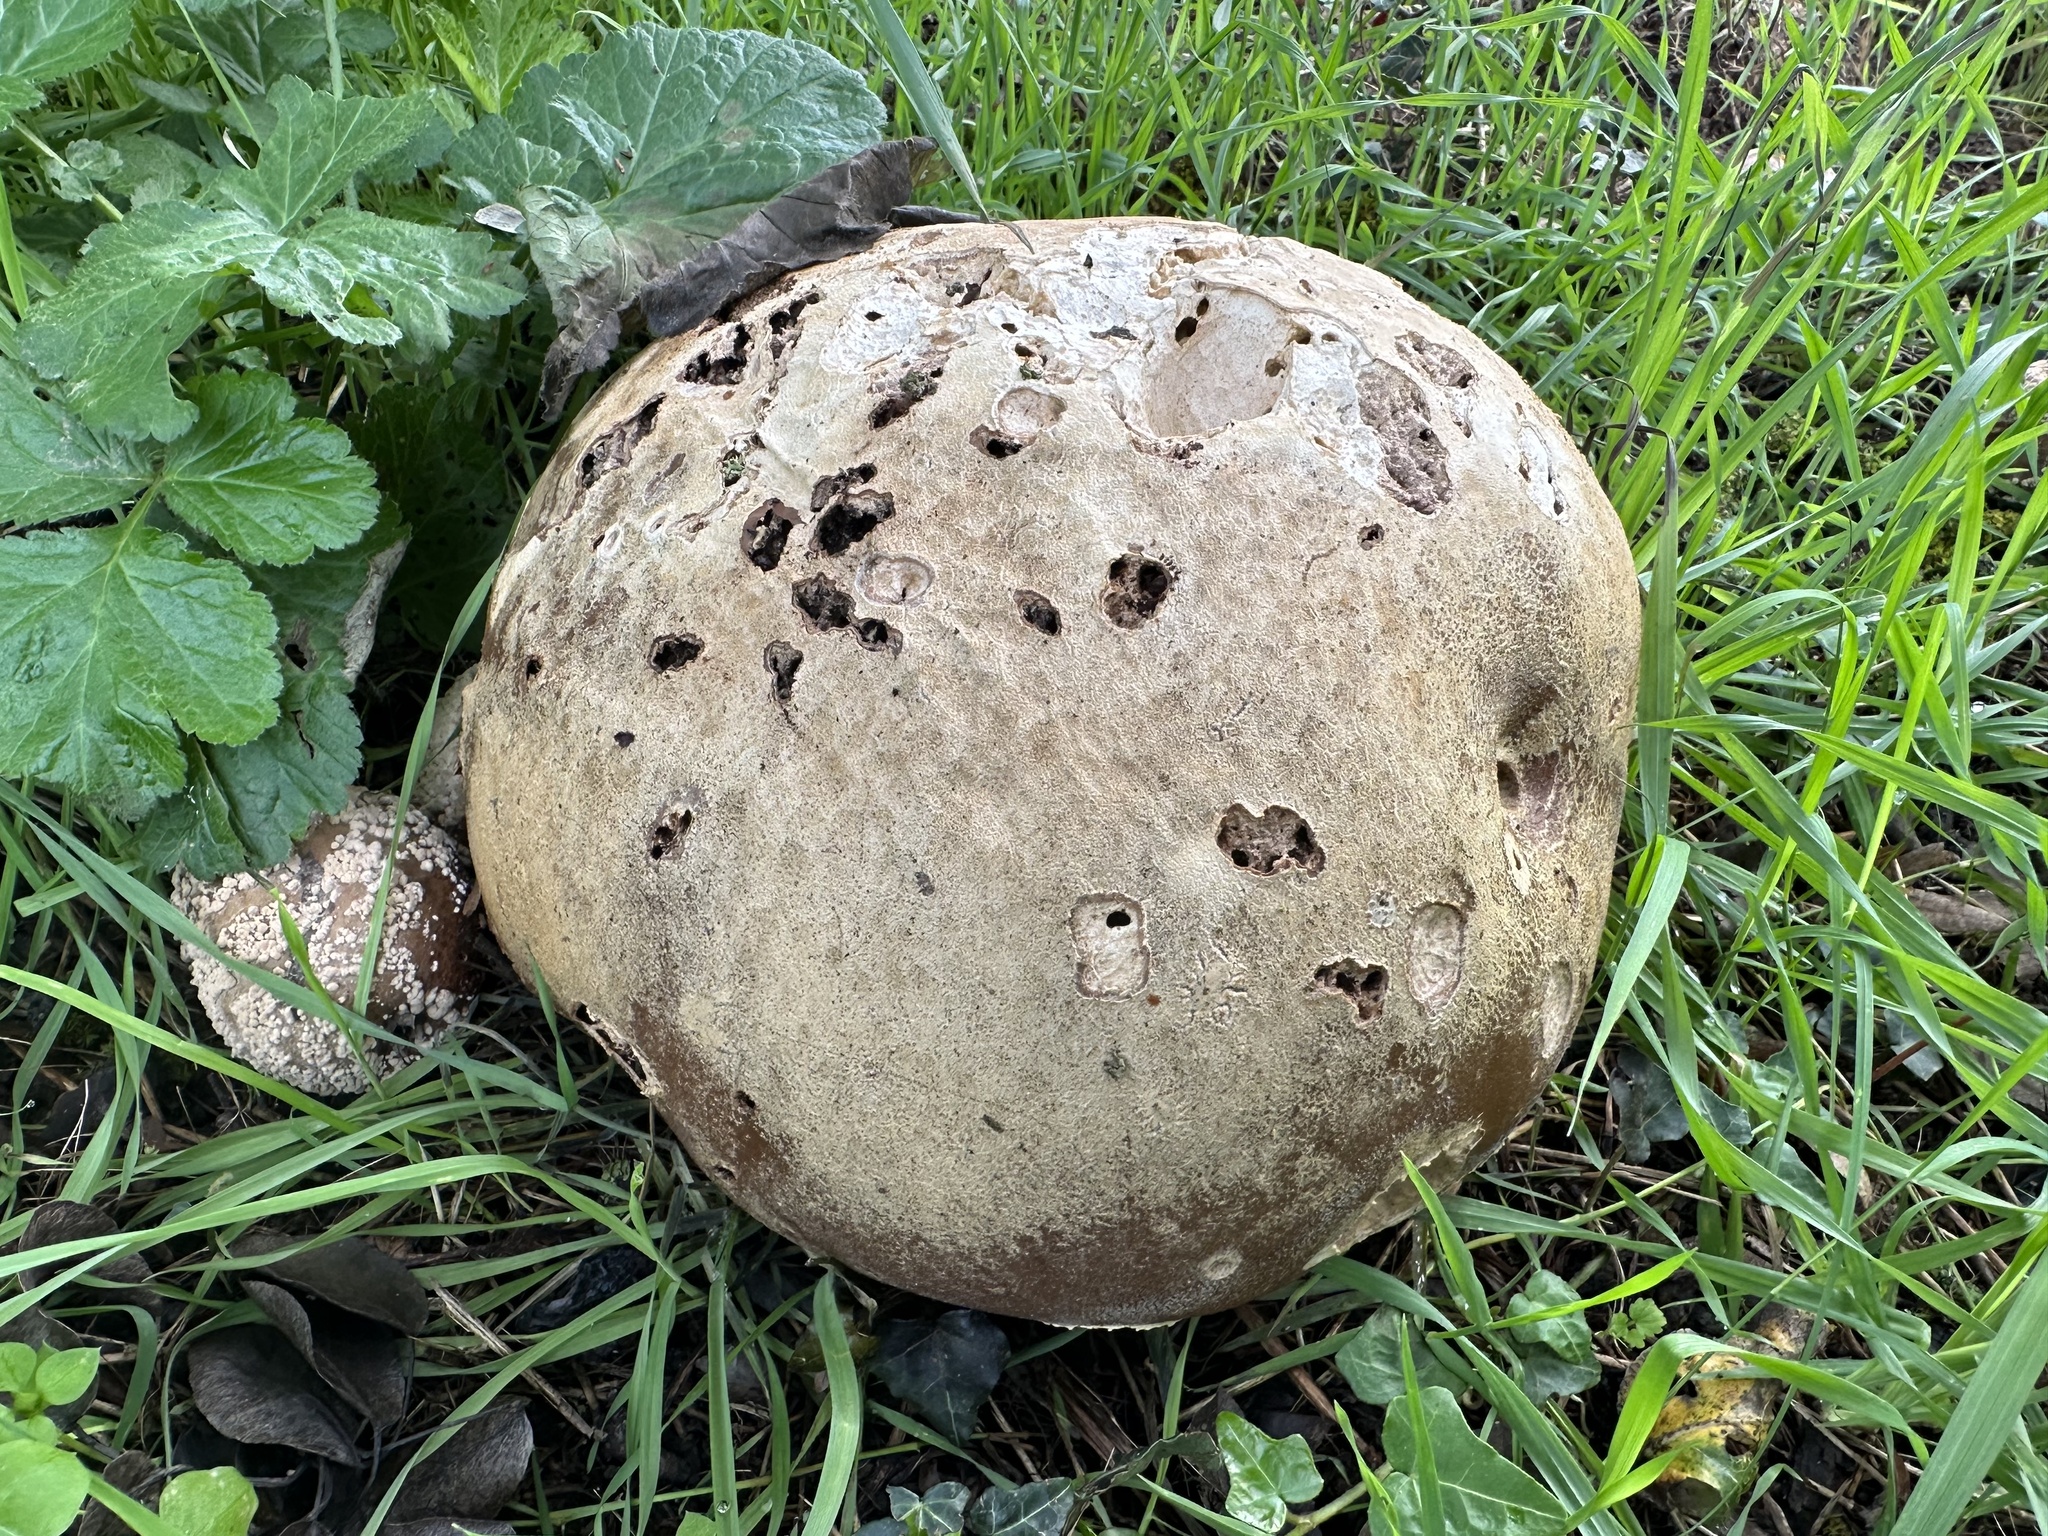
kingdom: Fungi
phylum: Basidiomycota
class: Agaricomycetes
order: Agaricales
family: Lycoperdaceae
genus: Calvatia
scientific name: Calvatia gigantea
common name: Giant puffball
